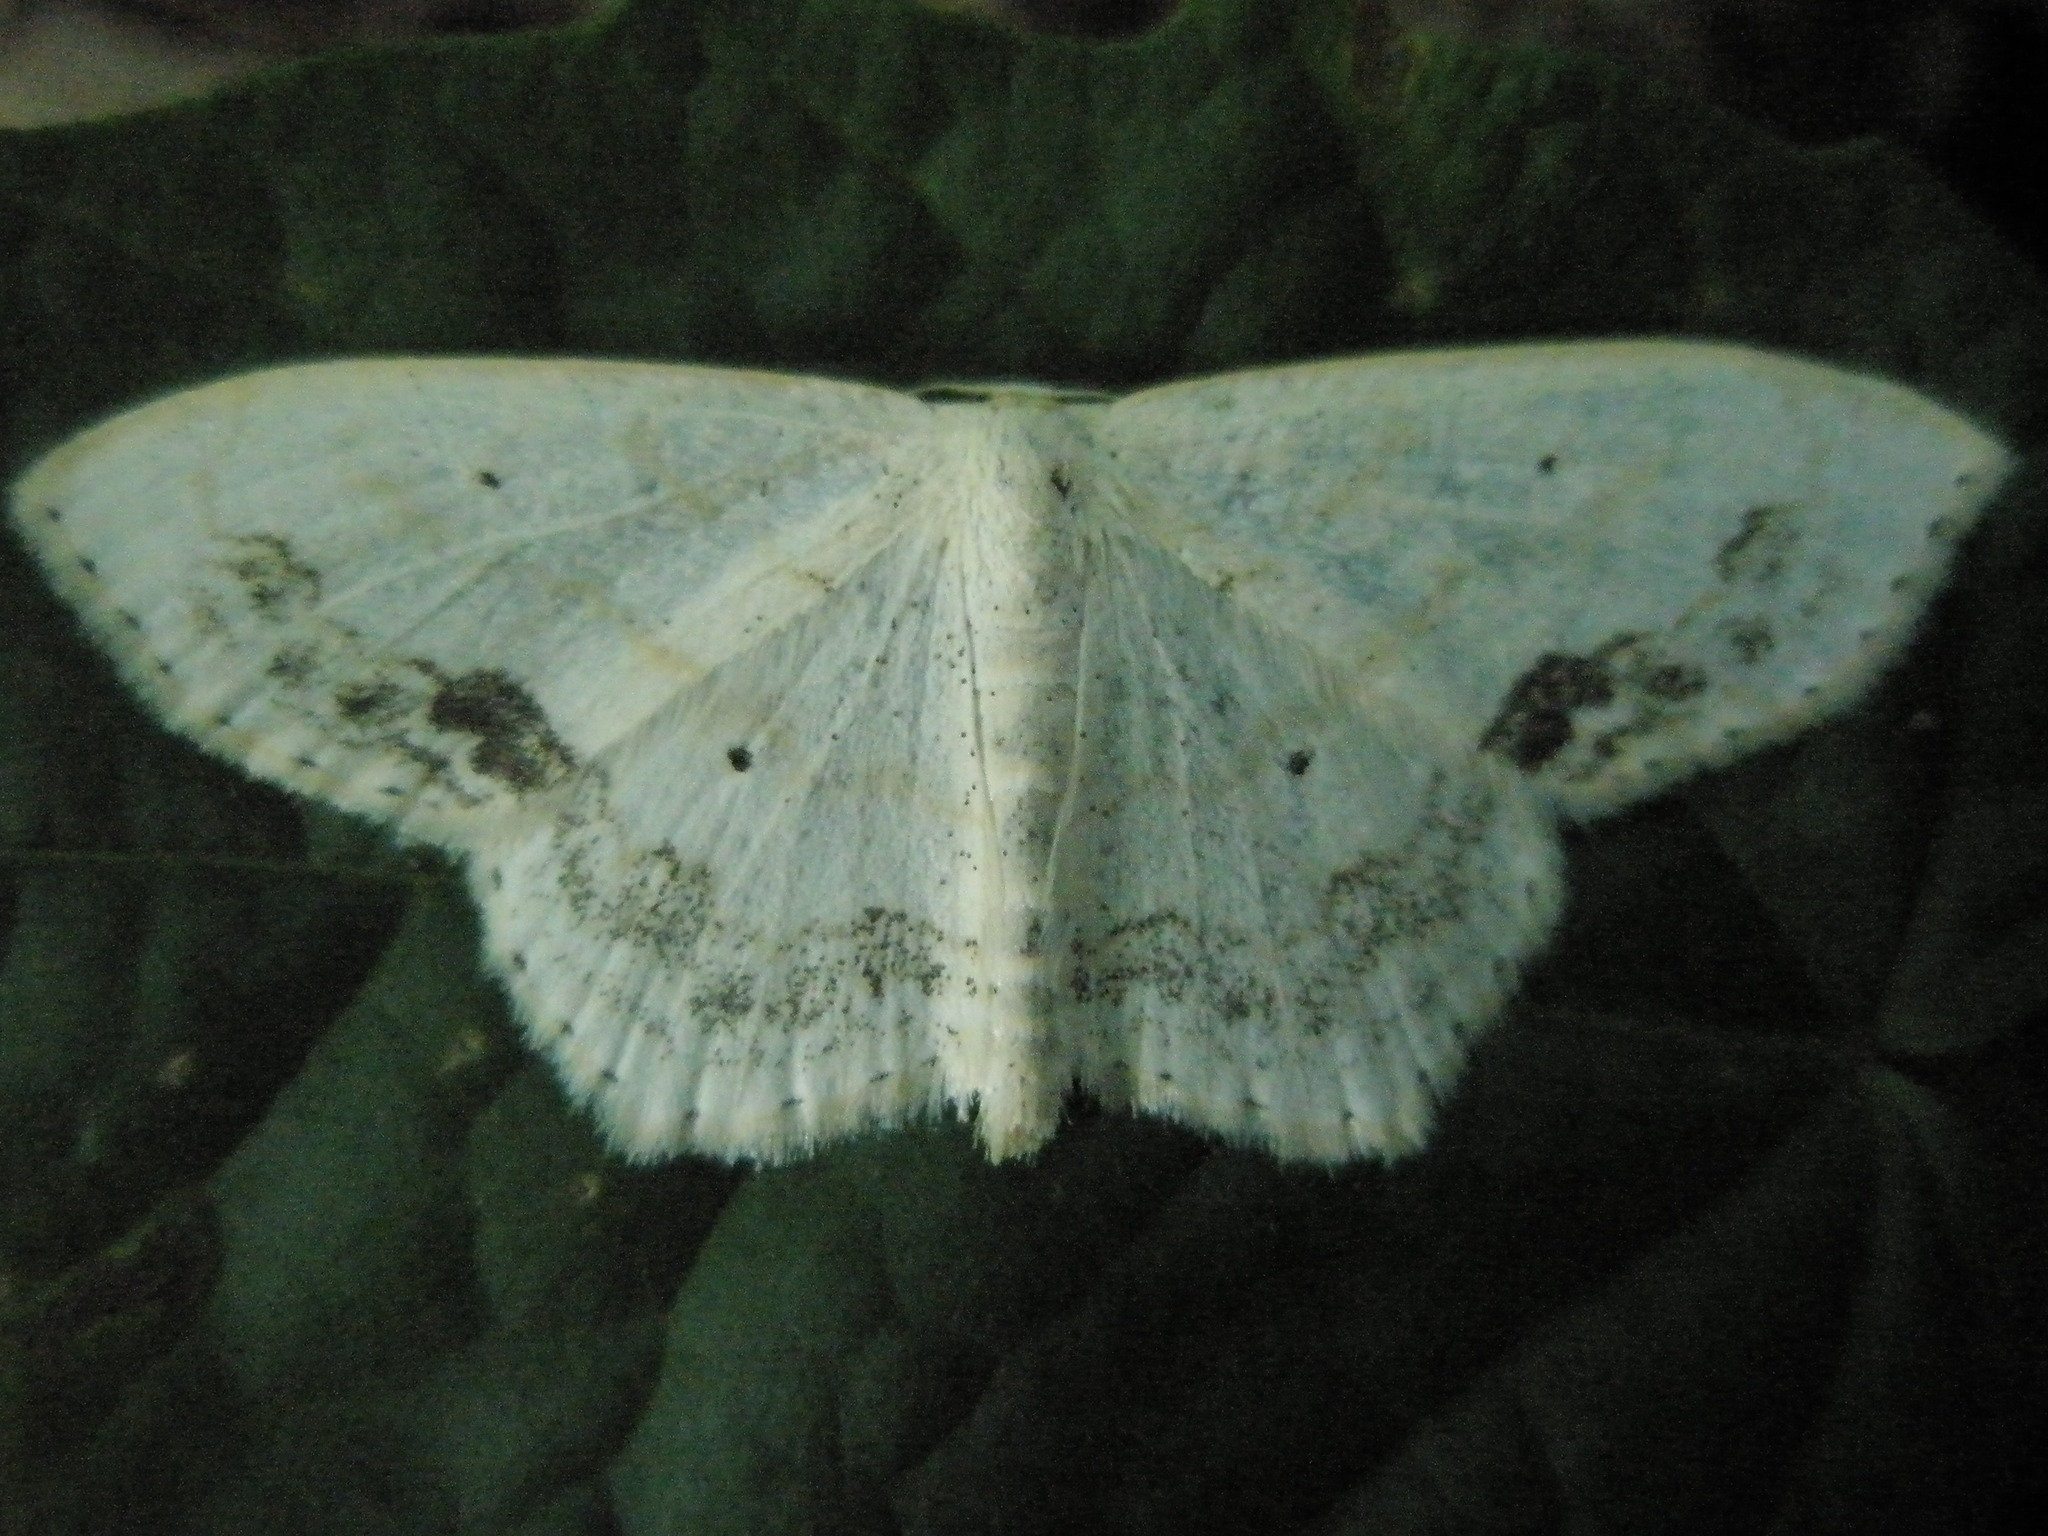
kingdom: Animalia
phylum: Arthropoda
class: Insecta
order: Lepidoptera
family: Geometridae
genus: Scopula
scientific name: Scopula limboundata
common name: Large lace border
